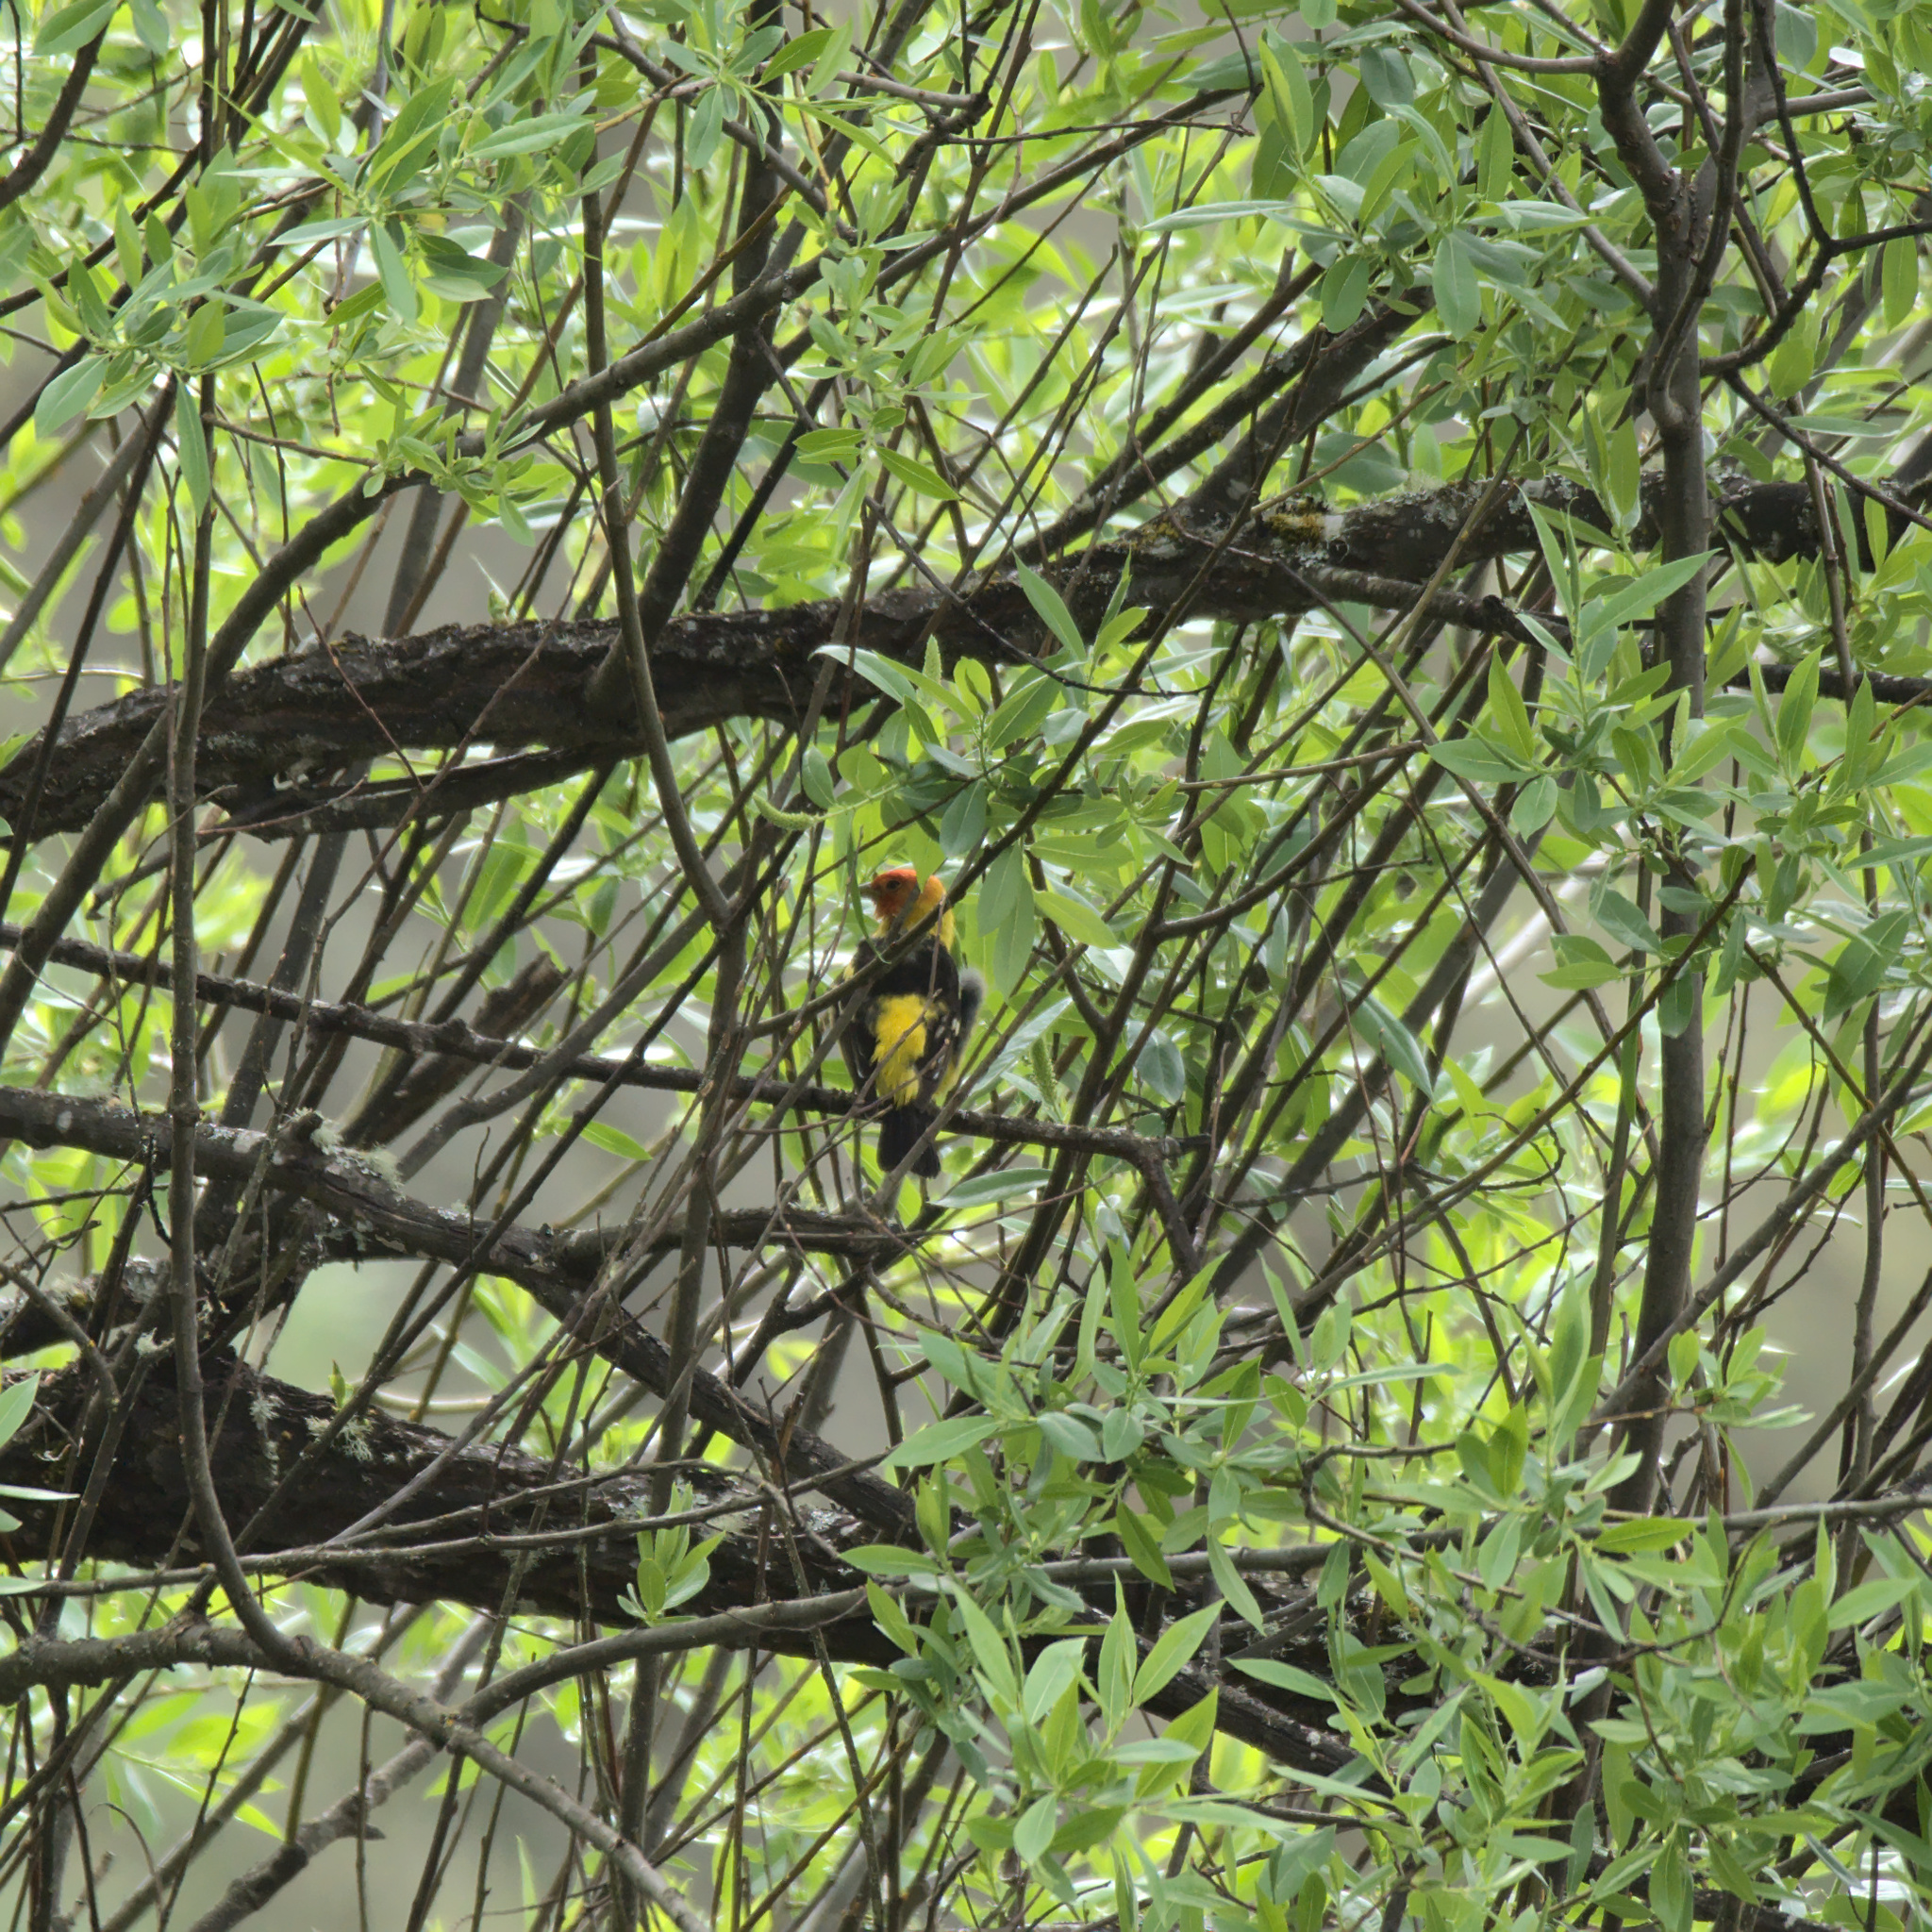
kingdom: Animalia
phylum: Chordata
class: Aves
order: Passeriformes
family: Cardinalidae
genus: Piranga
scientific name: Piranga ludoviciana
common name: Western tanager
